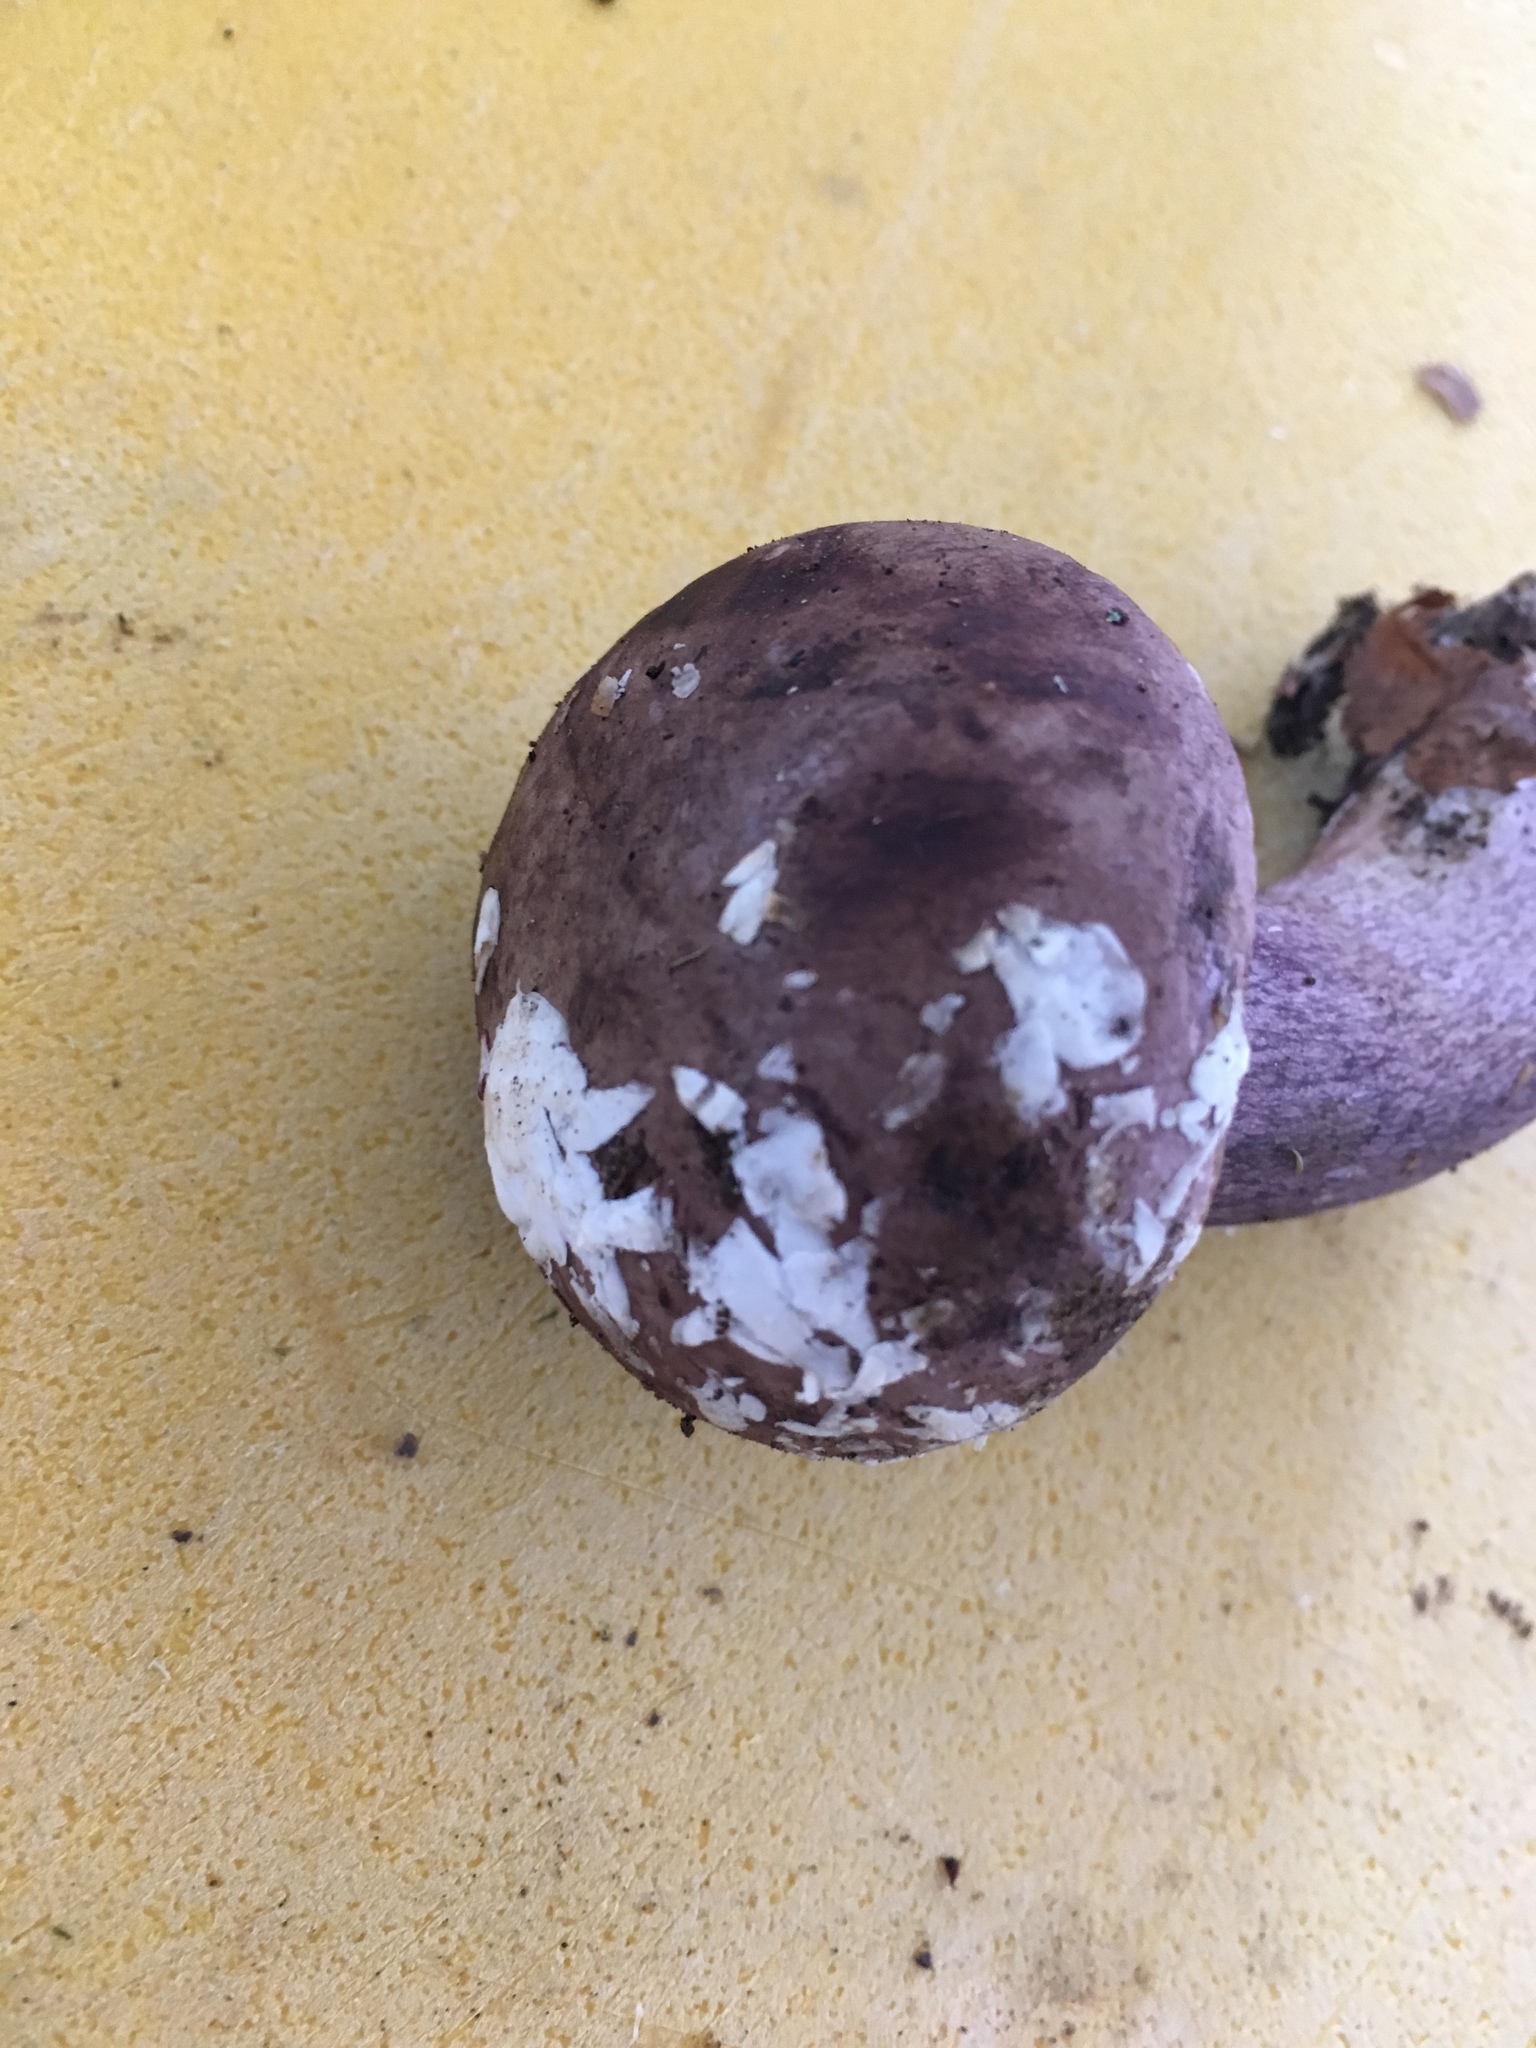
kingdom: Fungi
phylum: Basidiomycota
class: Agaricomycetes
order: Boletales
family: Boletaceae
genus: Tylopilus
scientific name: Tylopilus plumbeoviolaceus
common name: Violet gray bolete
